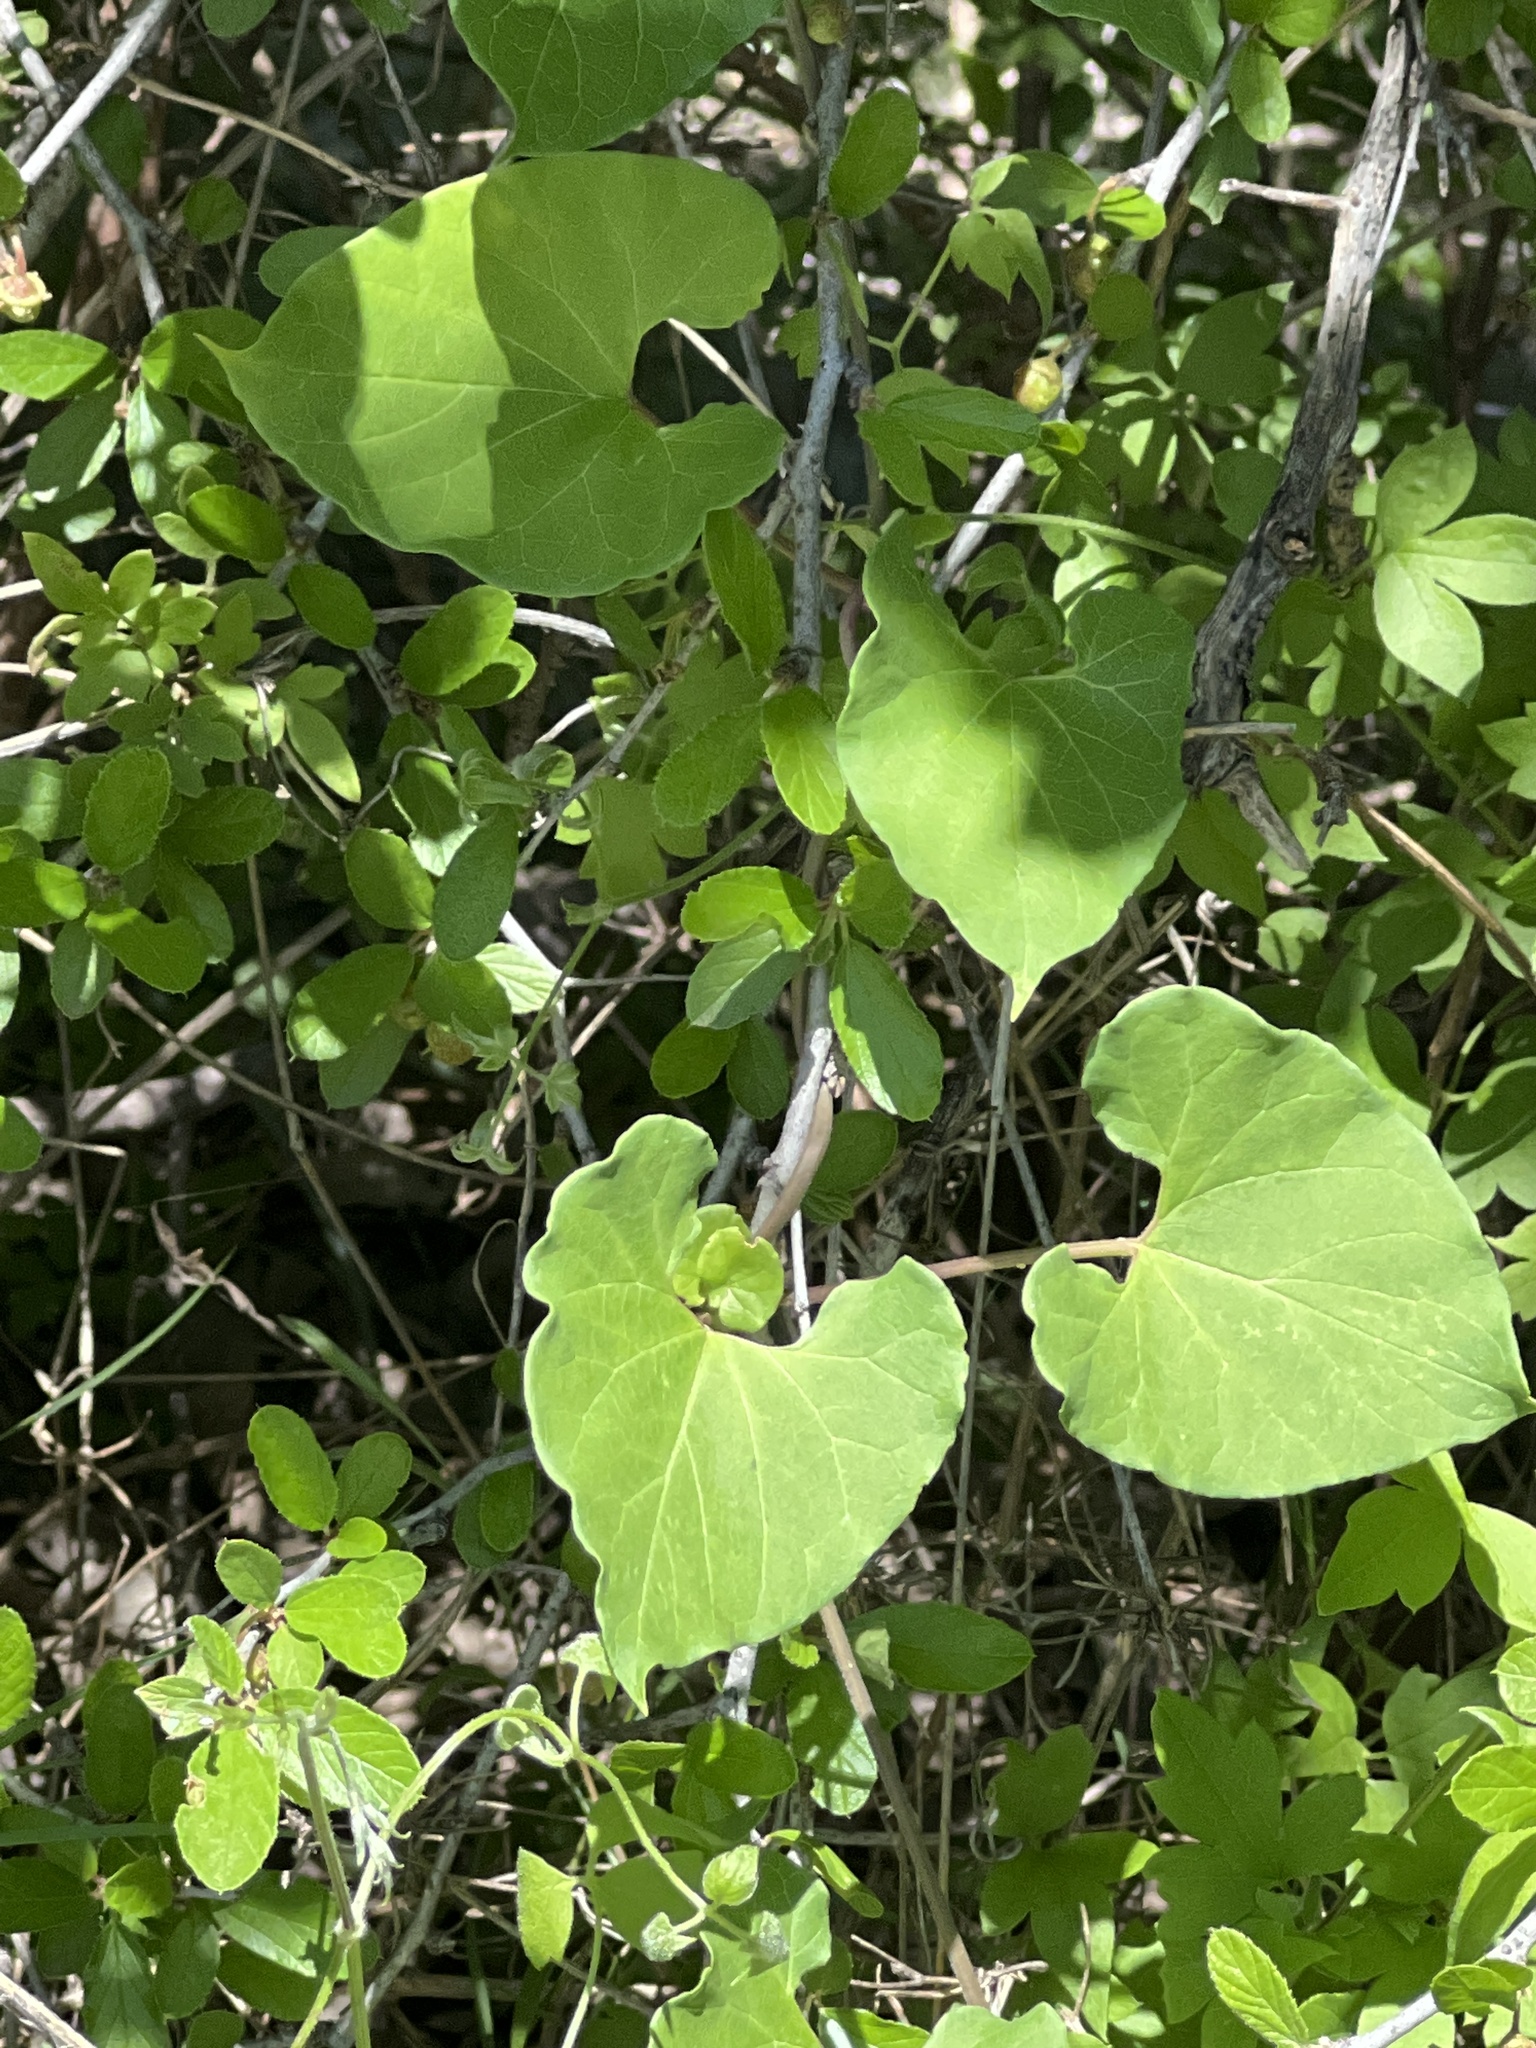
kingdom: Plantae
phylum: Tracheophyta
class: Magnoliopsida
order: Gentianales
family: Apocynaceae
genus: Cynanchum
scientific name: Cynanchum racemosum
